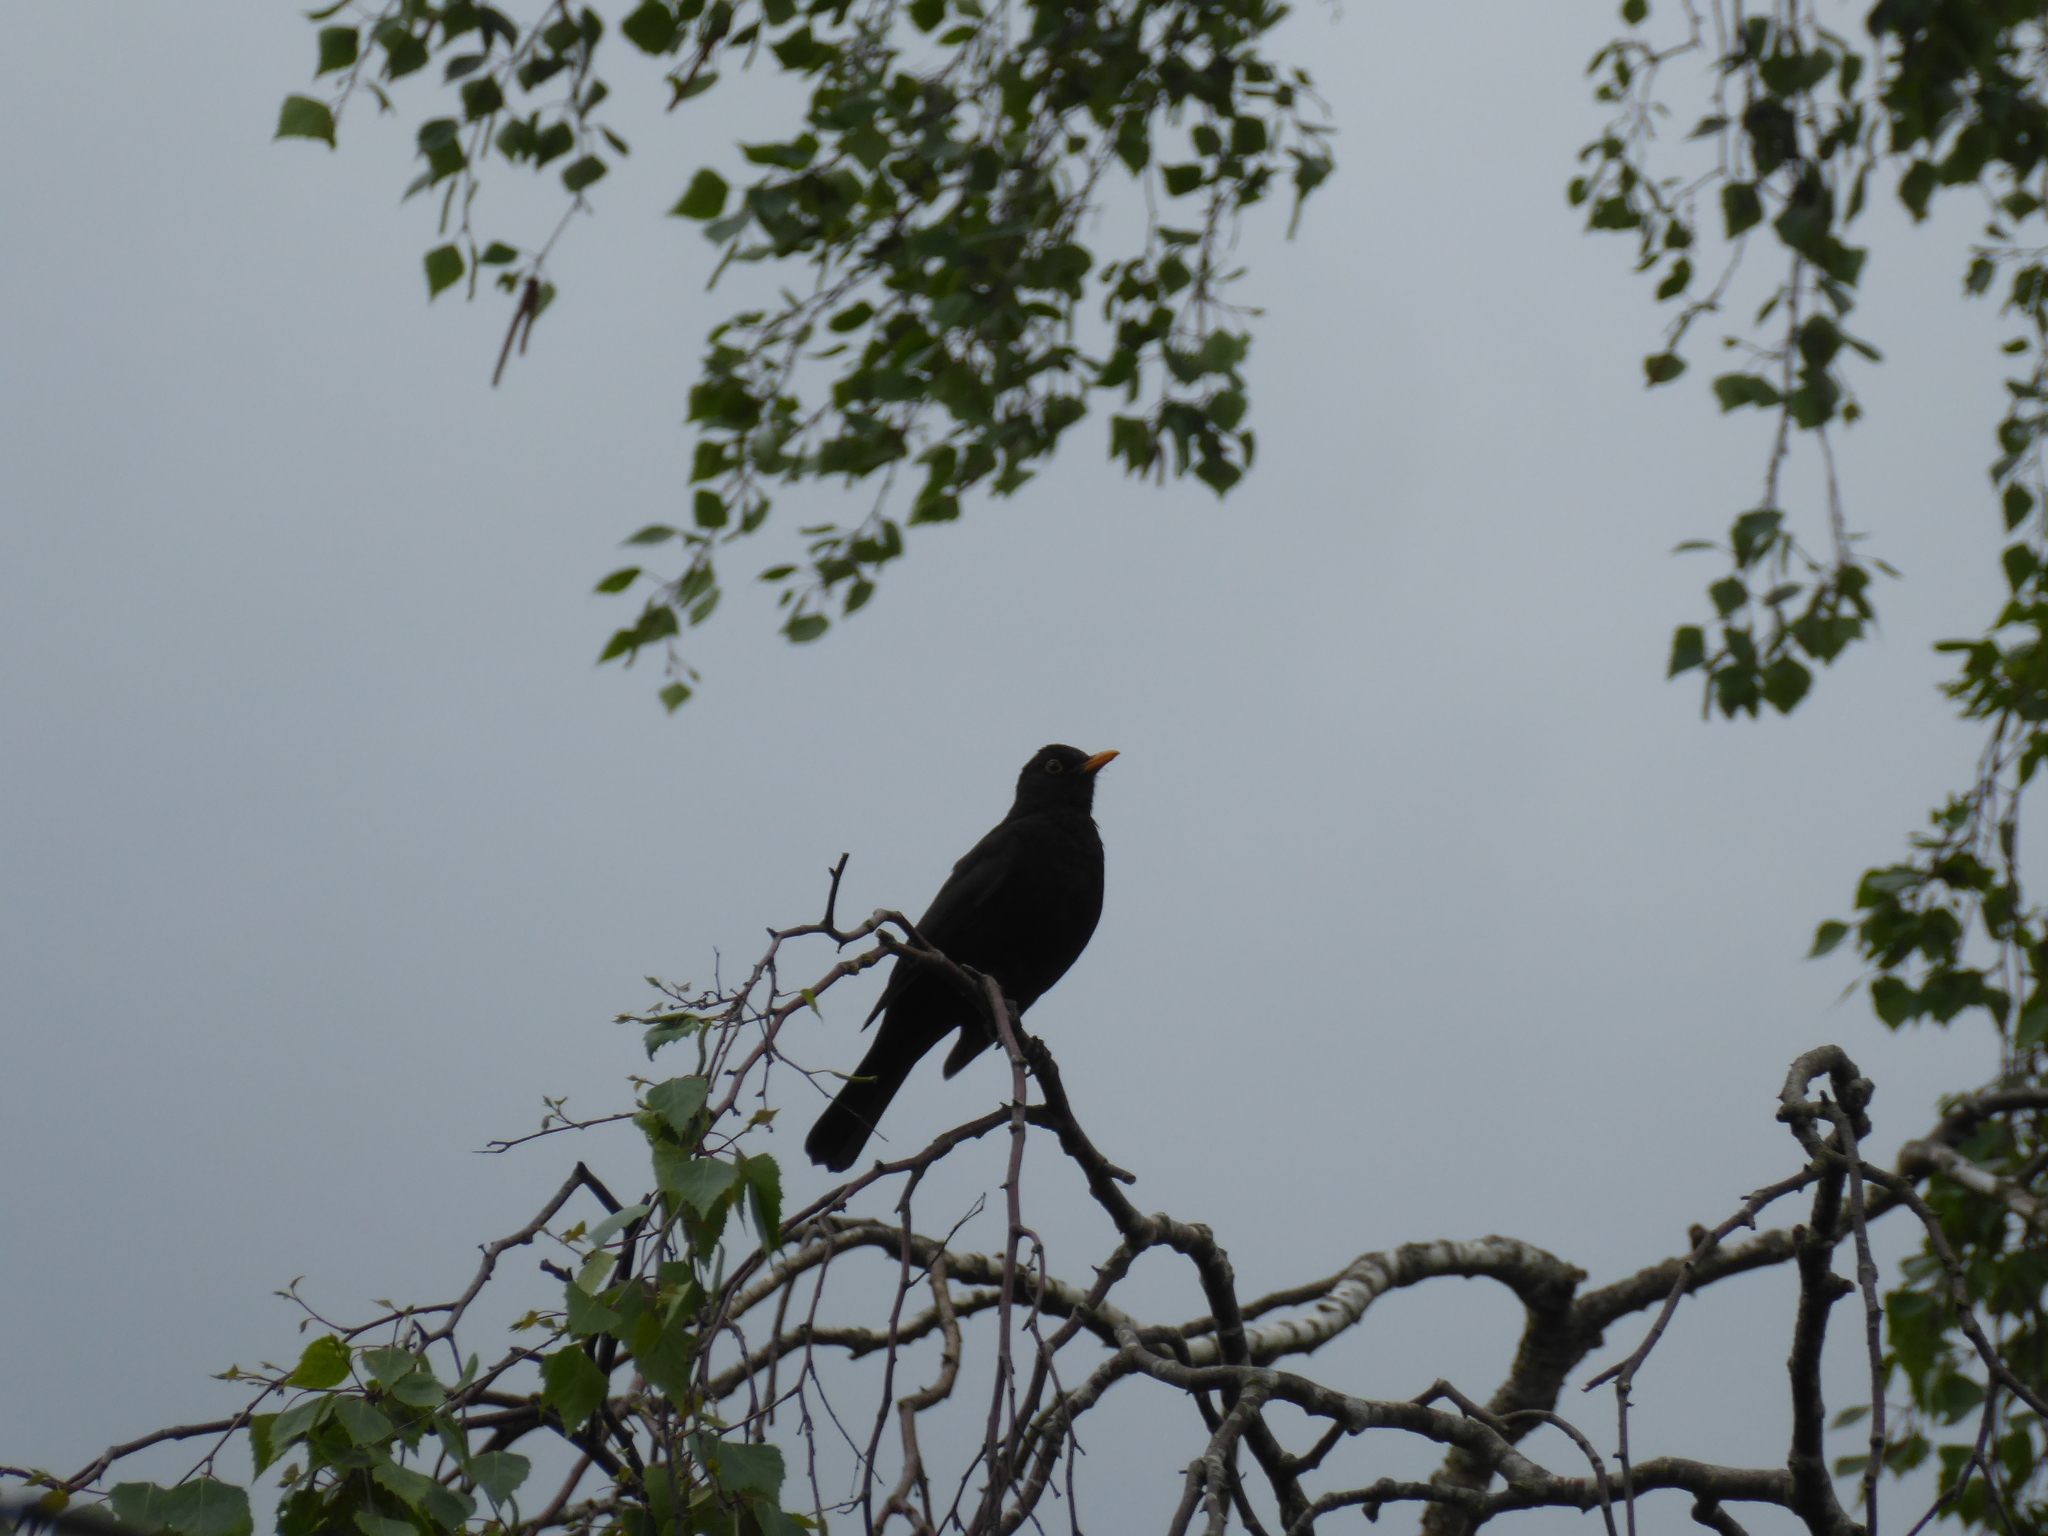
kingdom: Animalia
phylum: Chordata
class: Aves
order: Passeriformes
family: Turdidae
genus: Turdus
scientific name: Turdus merula
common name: Common blackbird
